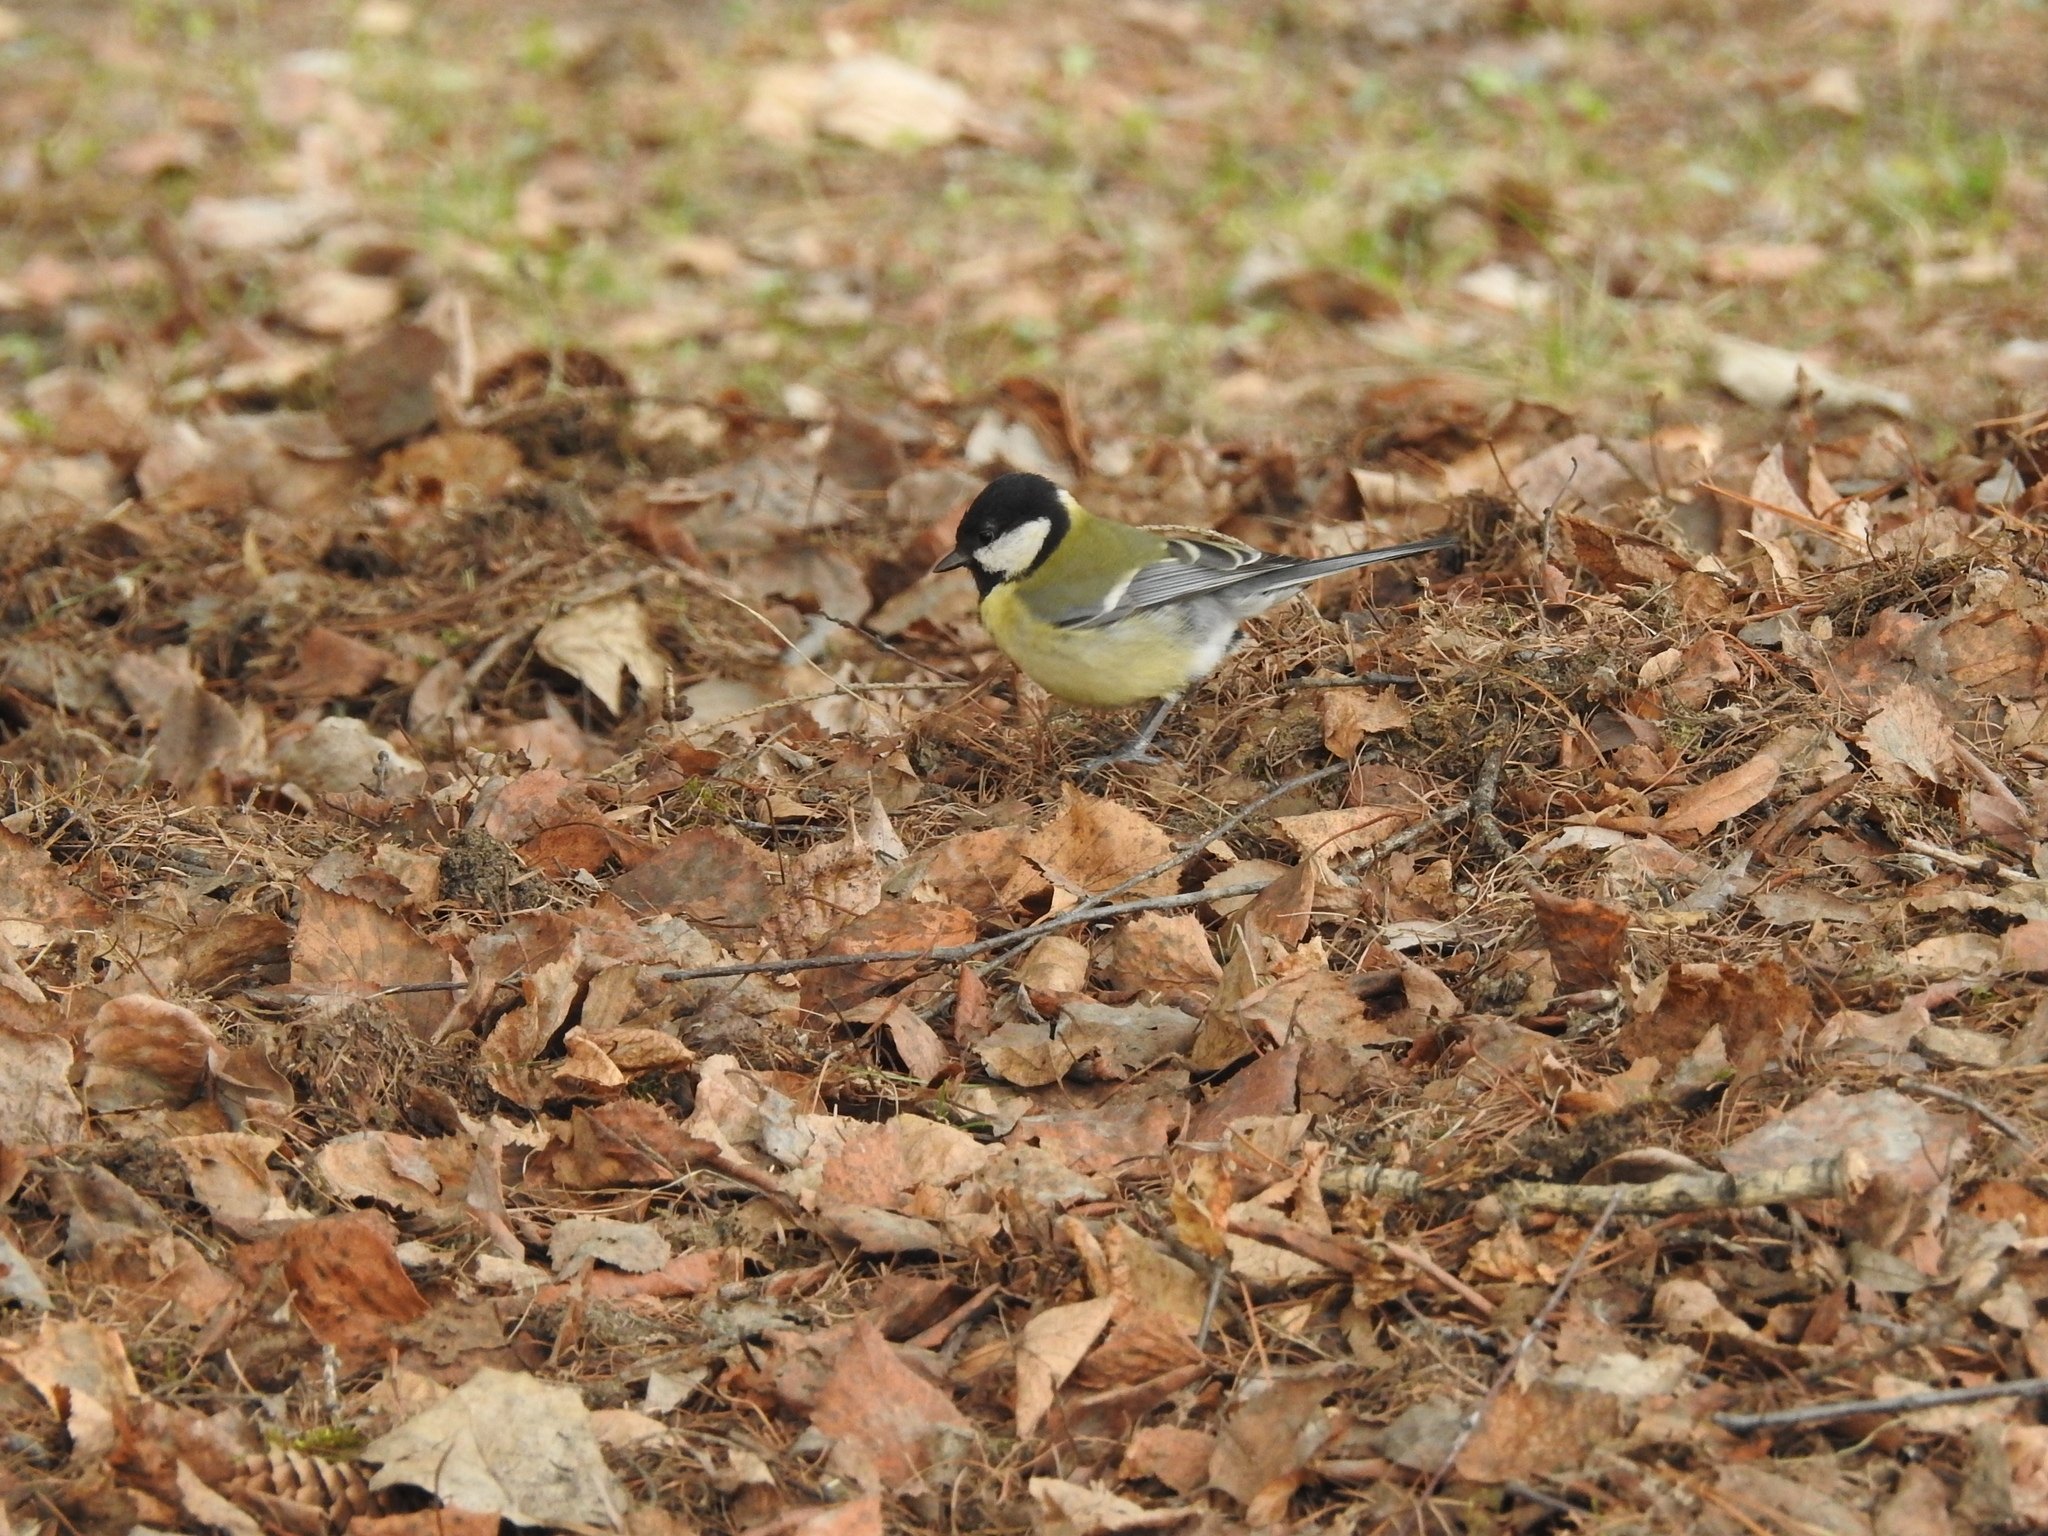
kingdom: Animalia
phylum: Chordata
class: Aves
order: Passeriformes
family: Paridae
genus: Parus
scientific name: Parus major
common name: Great tit
